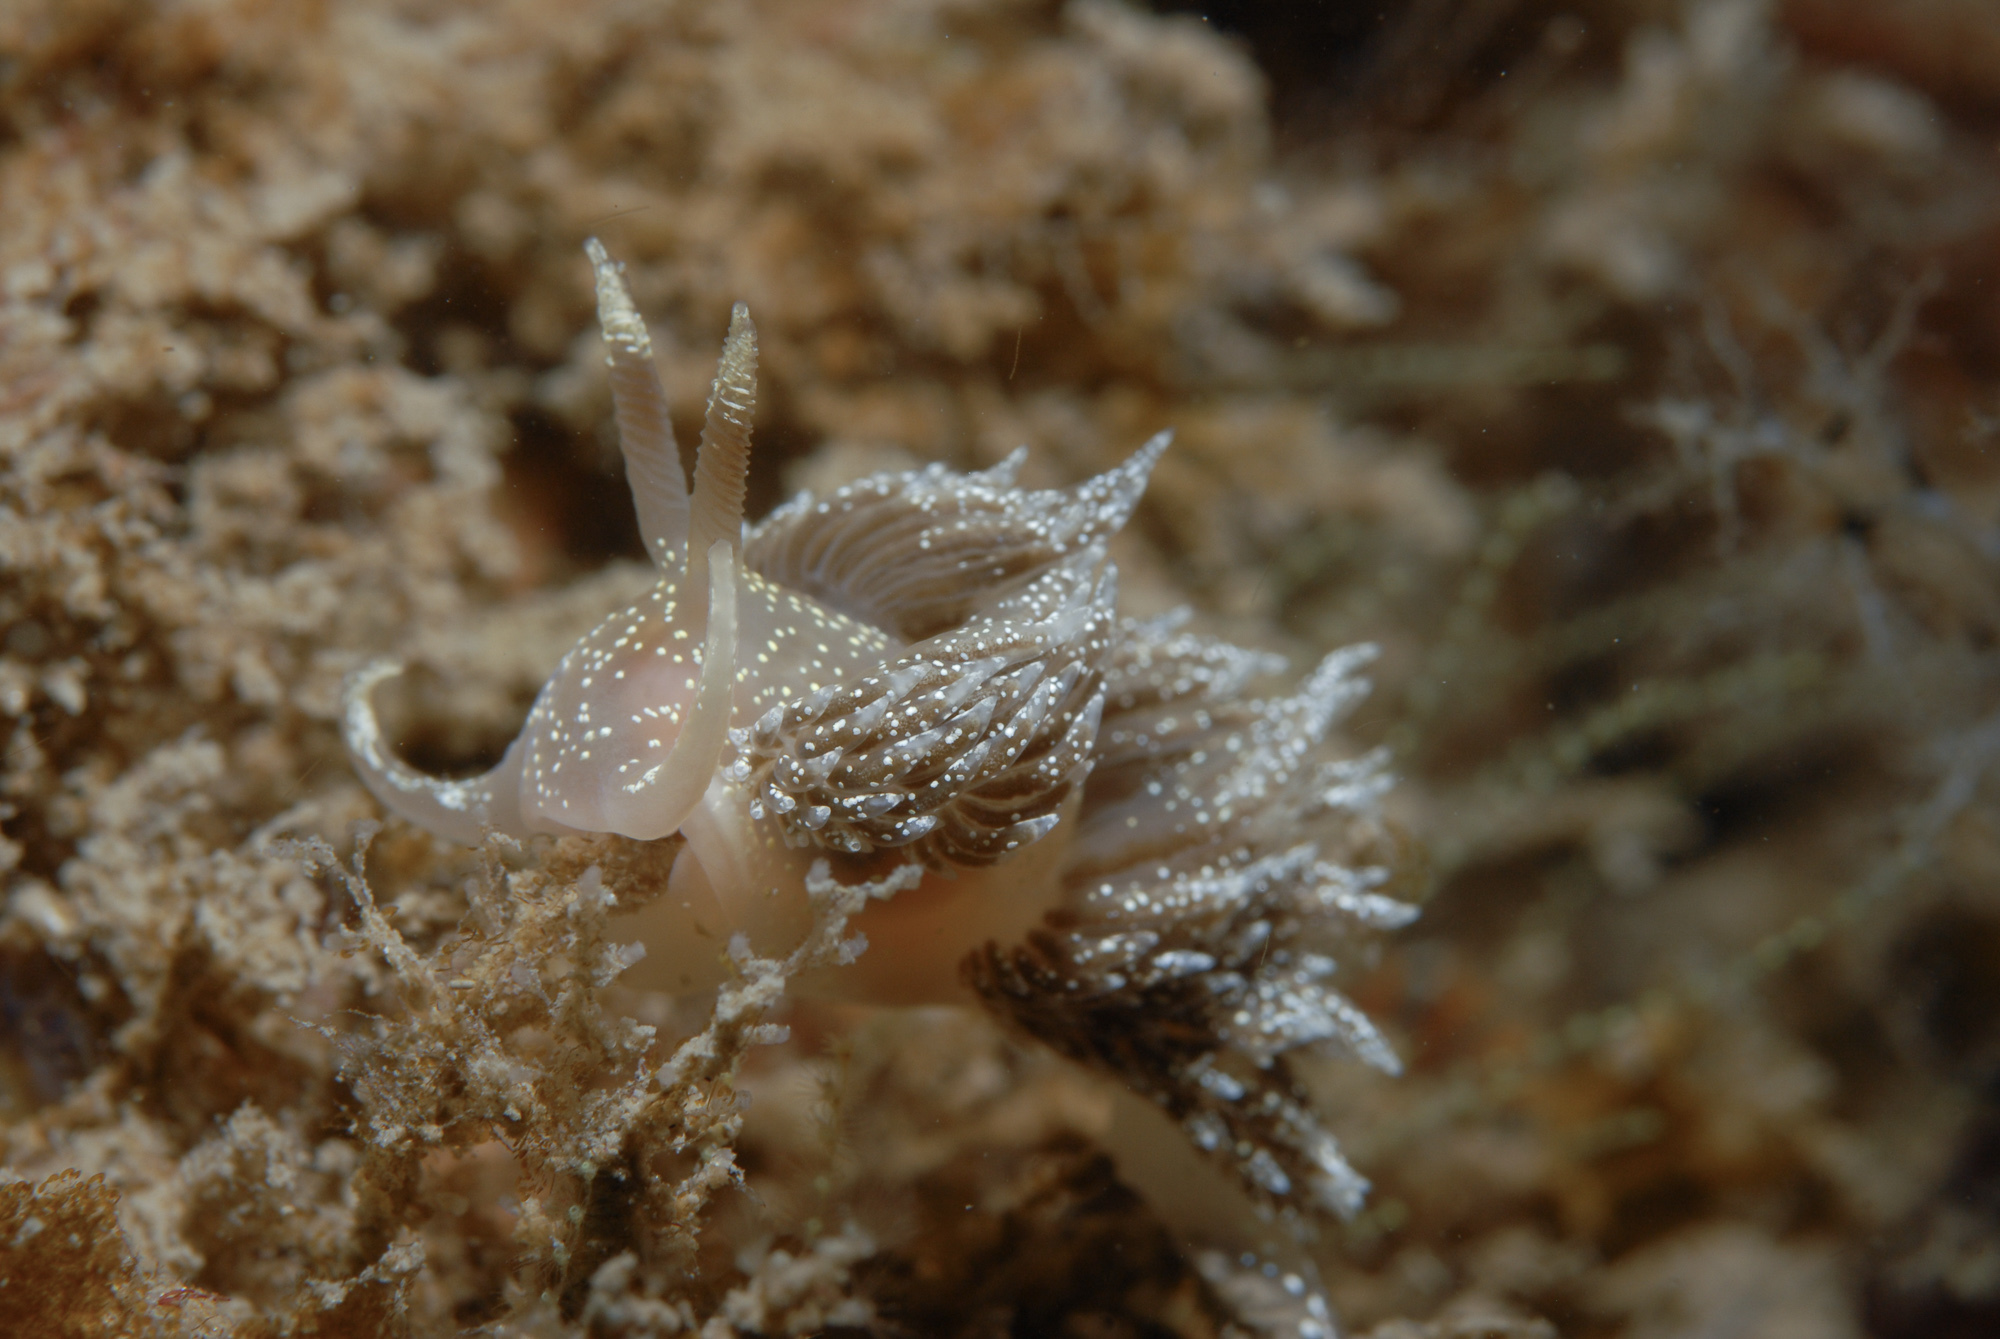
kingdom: Animalia
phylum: Mollusca
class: Gastropoda
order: Nudibranchia
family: Facelinidae
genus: Facelina
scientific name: Facelina annulicornis
